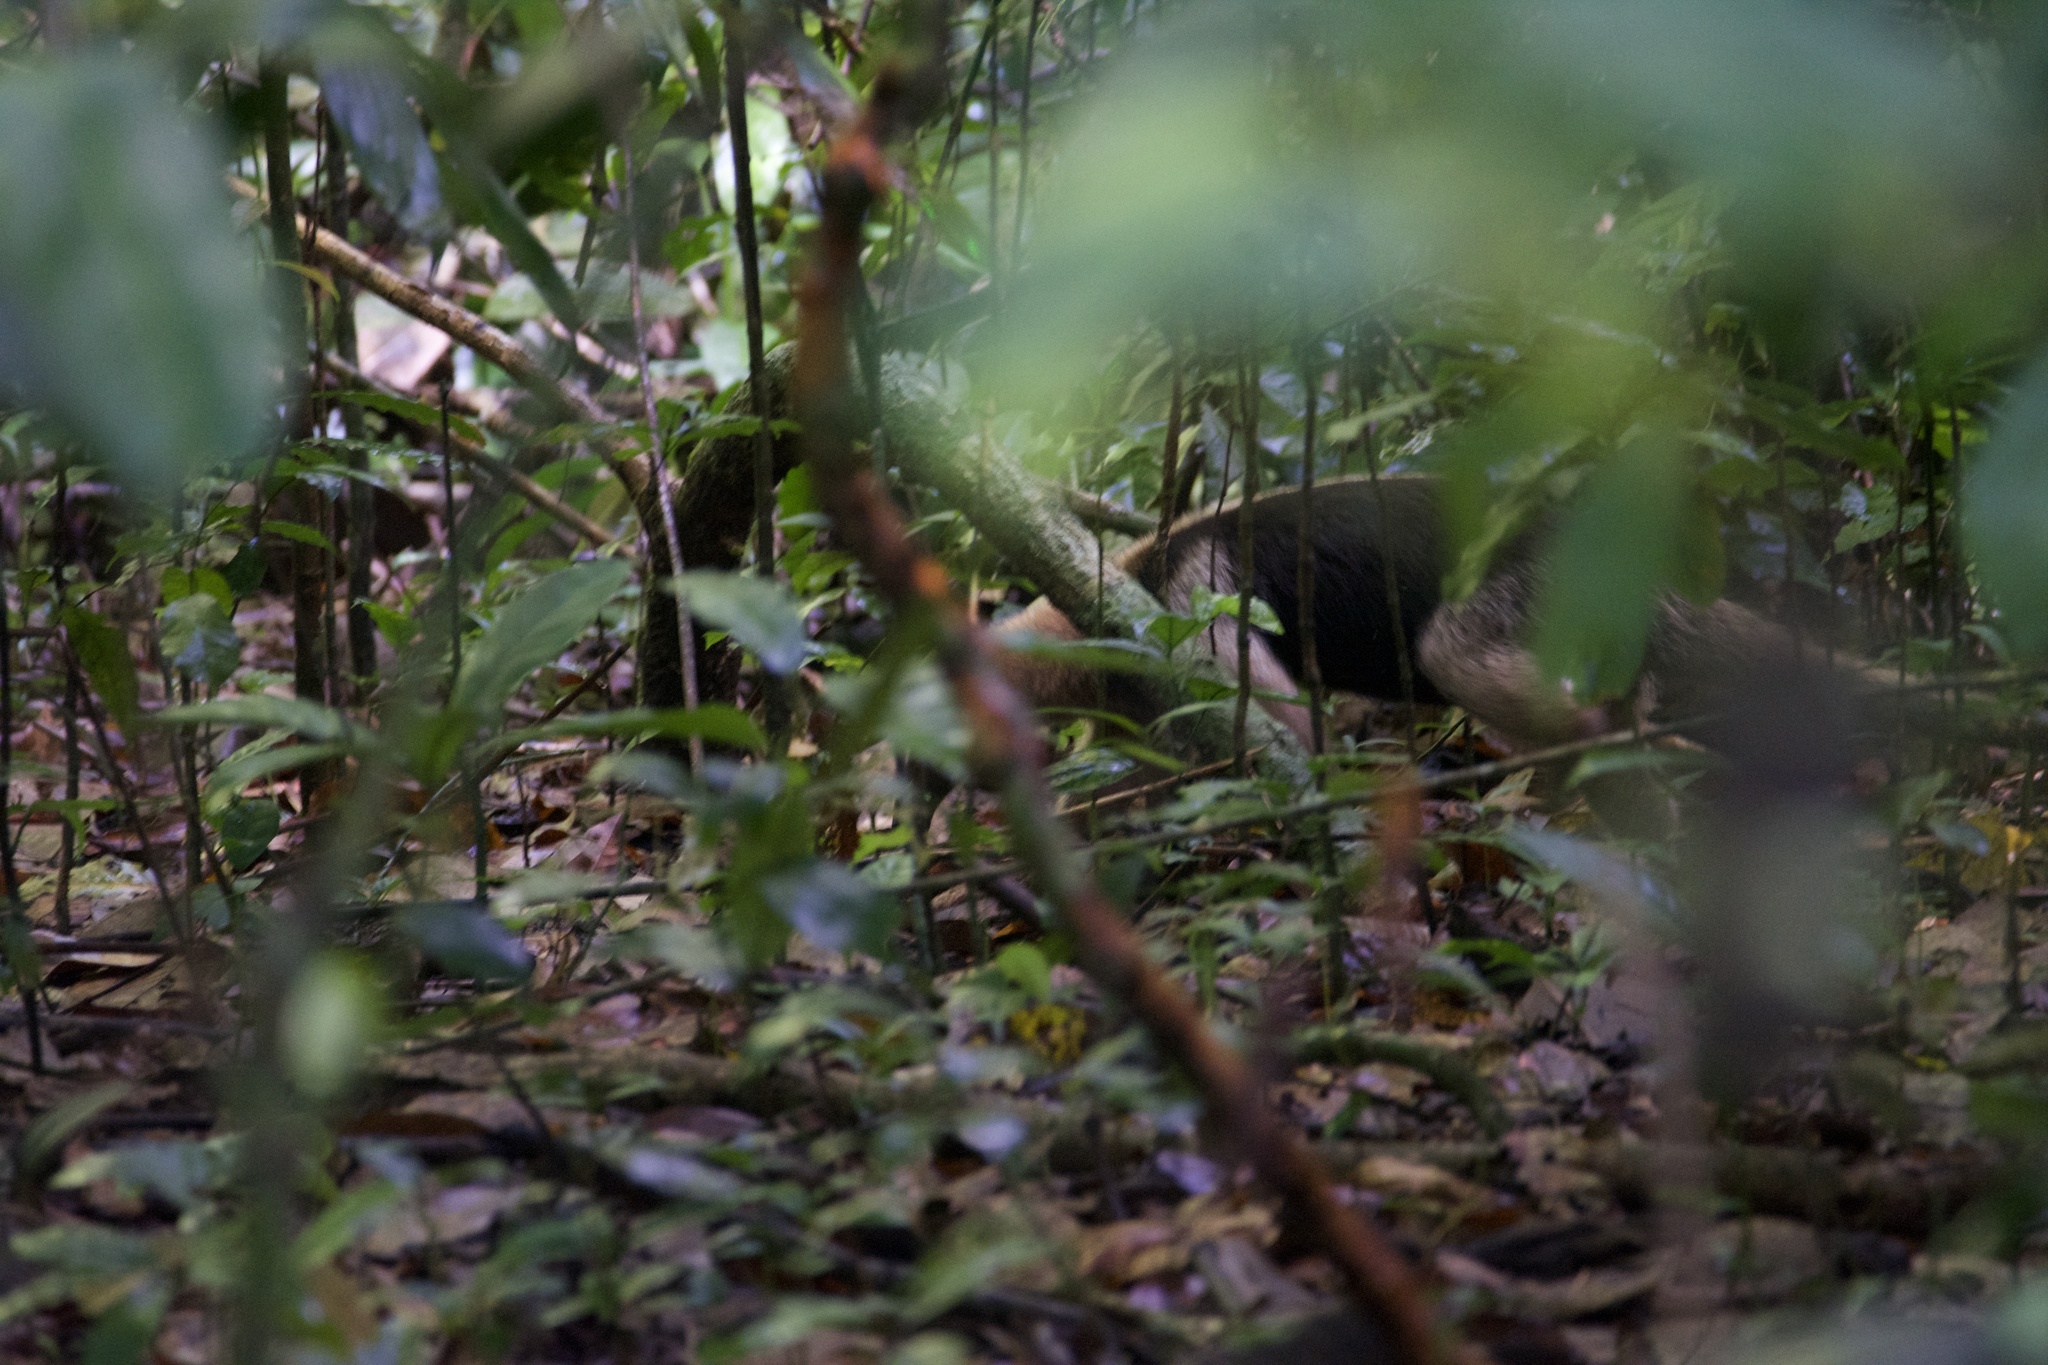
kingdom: Animalia
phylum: Chordata
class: Mammalia
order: Pilosa
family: Myrmecophagidae
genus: Tamandua
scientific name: Tamandua mexicana
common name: Northern tamandua
